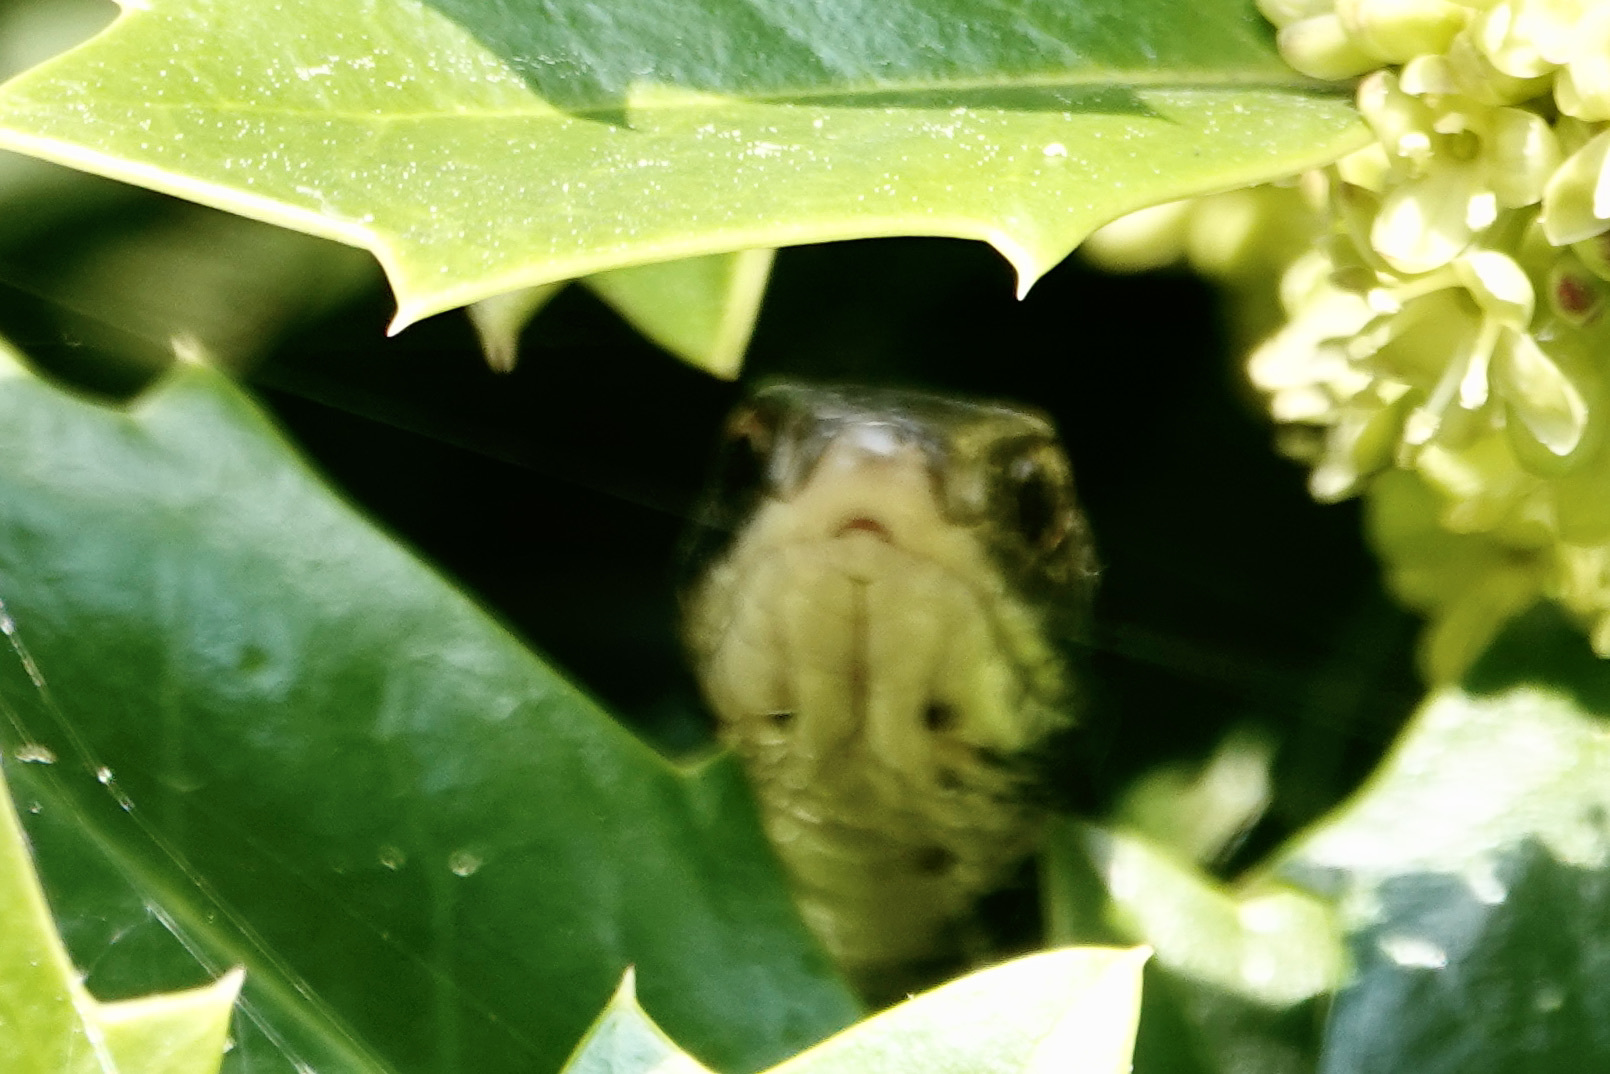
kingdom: Animalia
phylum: Chordata
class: Squamata
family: Colubridae
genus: Coluber
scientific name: Coluber constrictor
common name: Eastern racer
